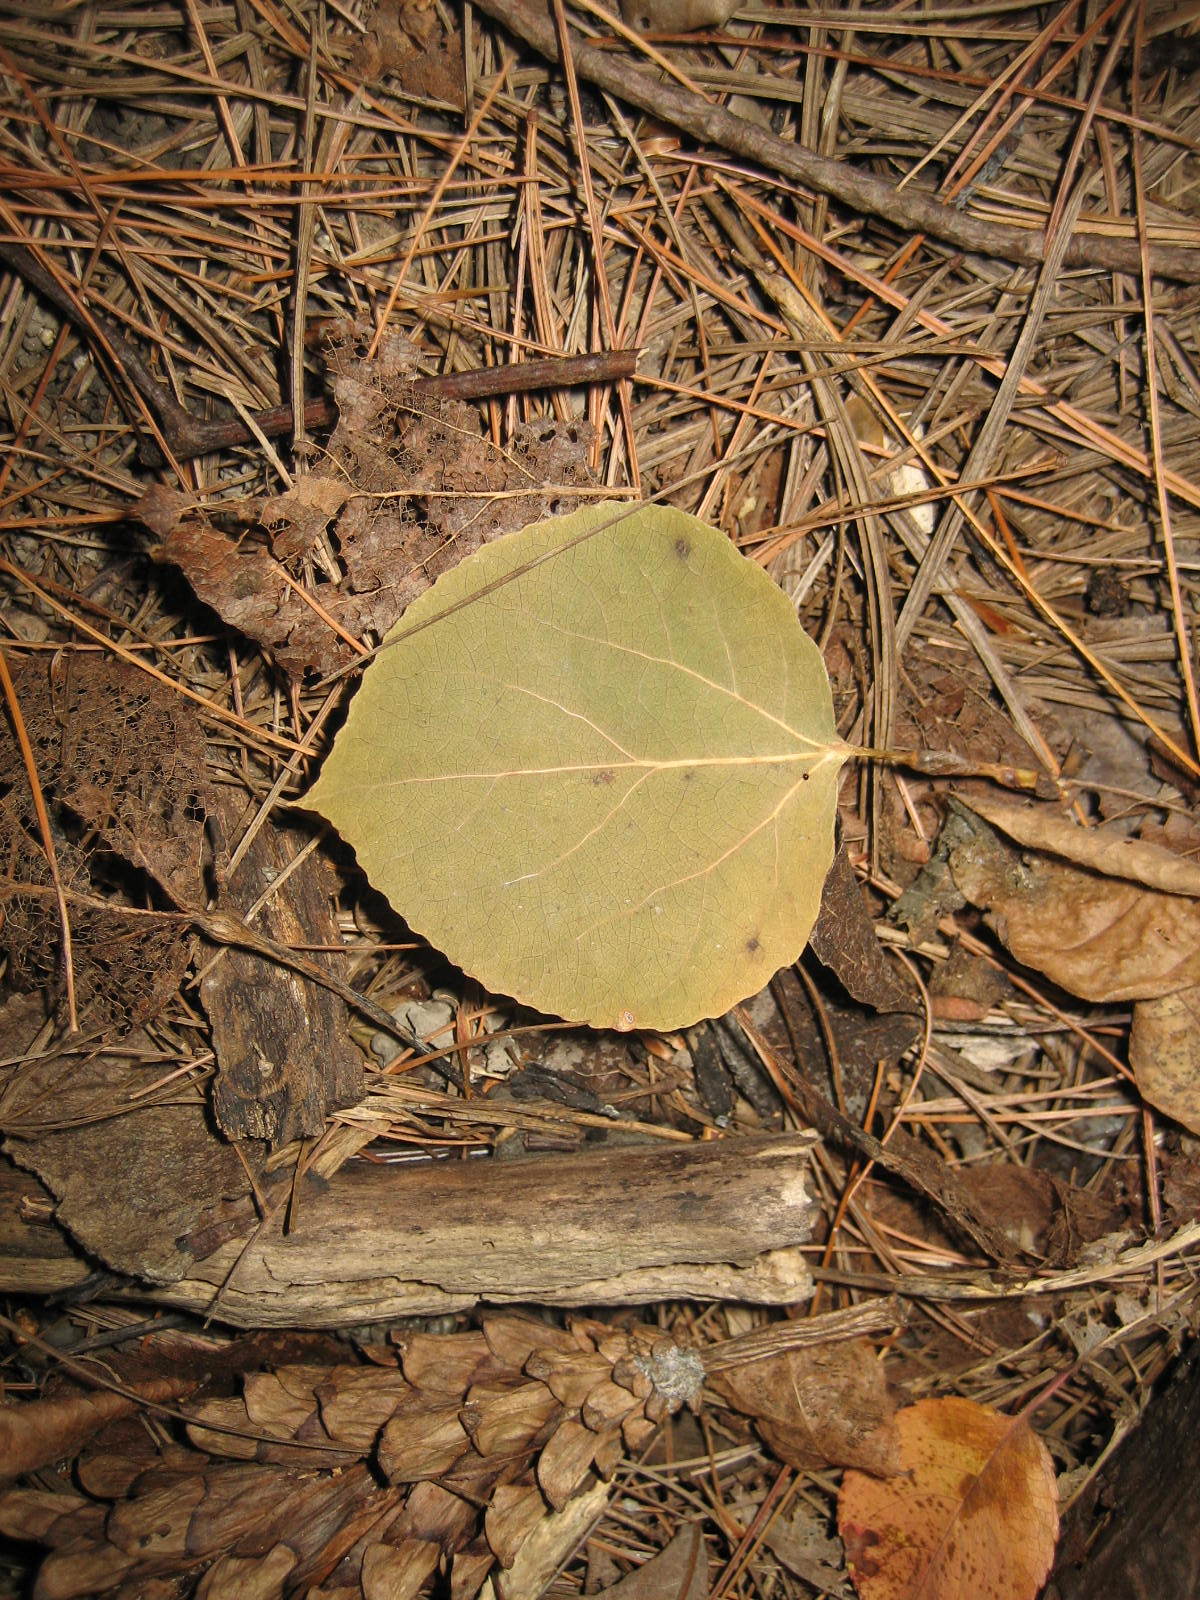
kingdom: Plantae
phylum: Tracheophyta
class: Magnoliopsida
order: Malpighiales
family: Salicaceae
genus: Populus
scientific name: Populus tremuloides
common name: Quaking aspen
